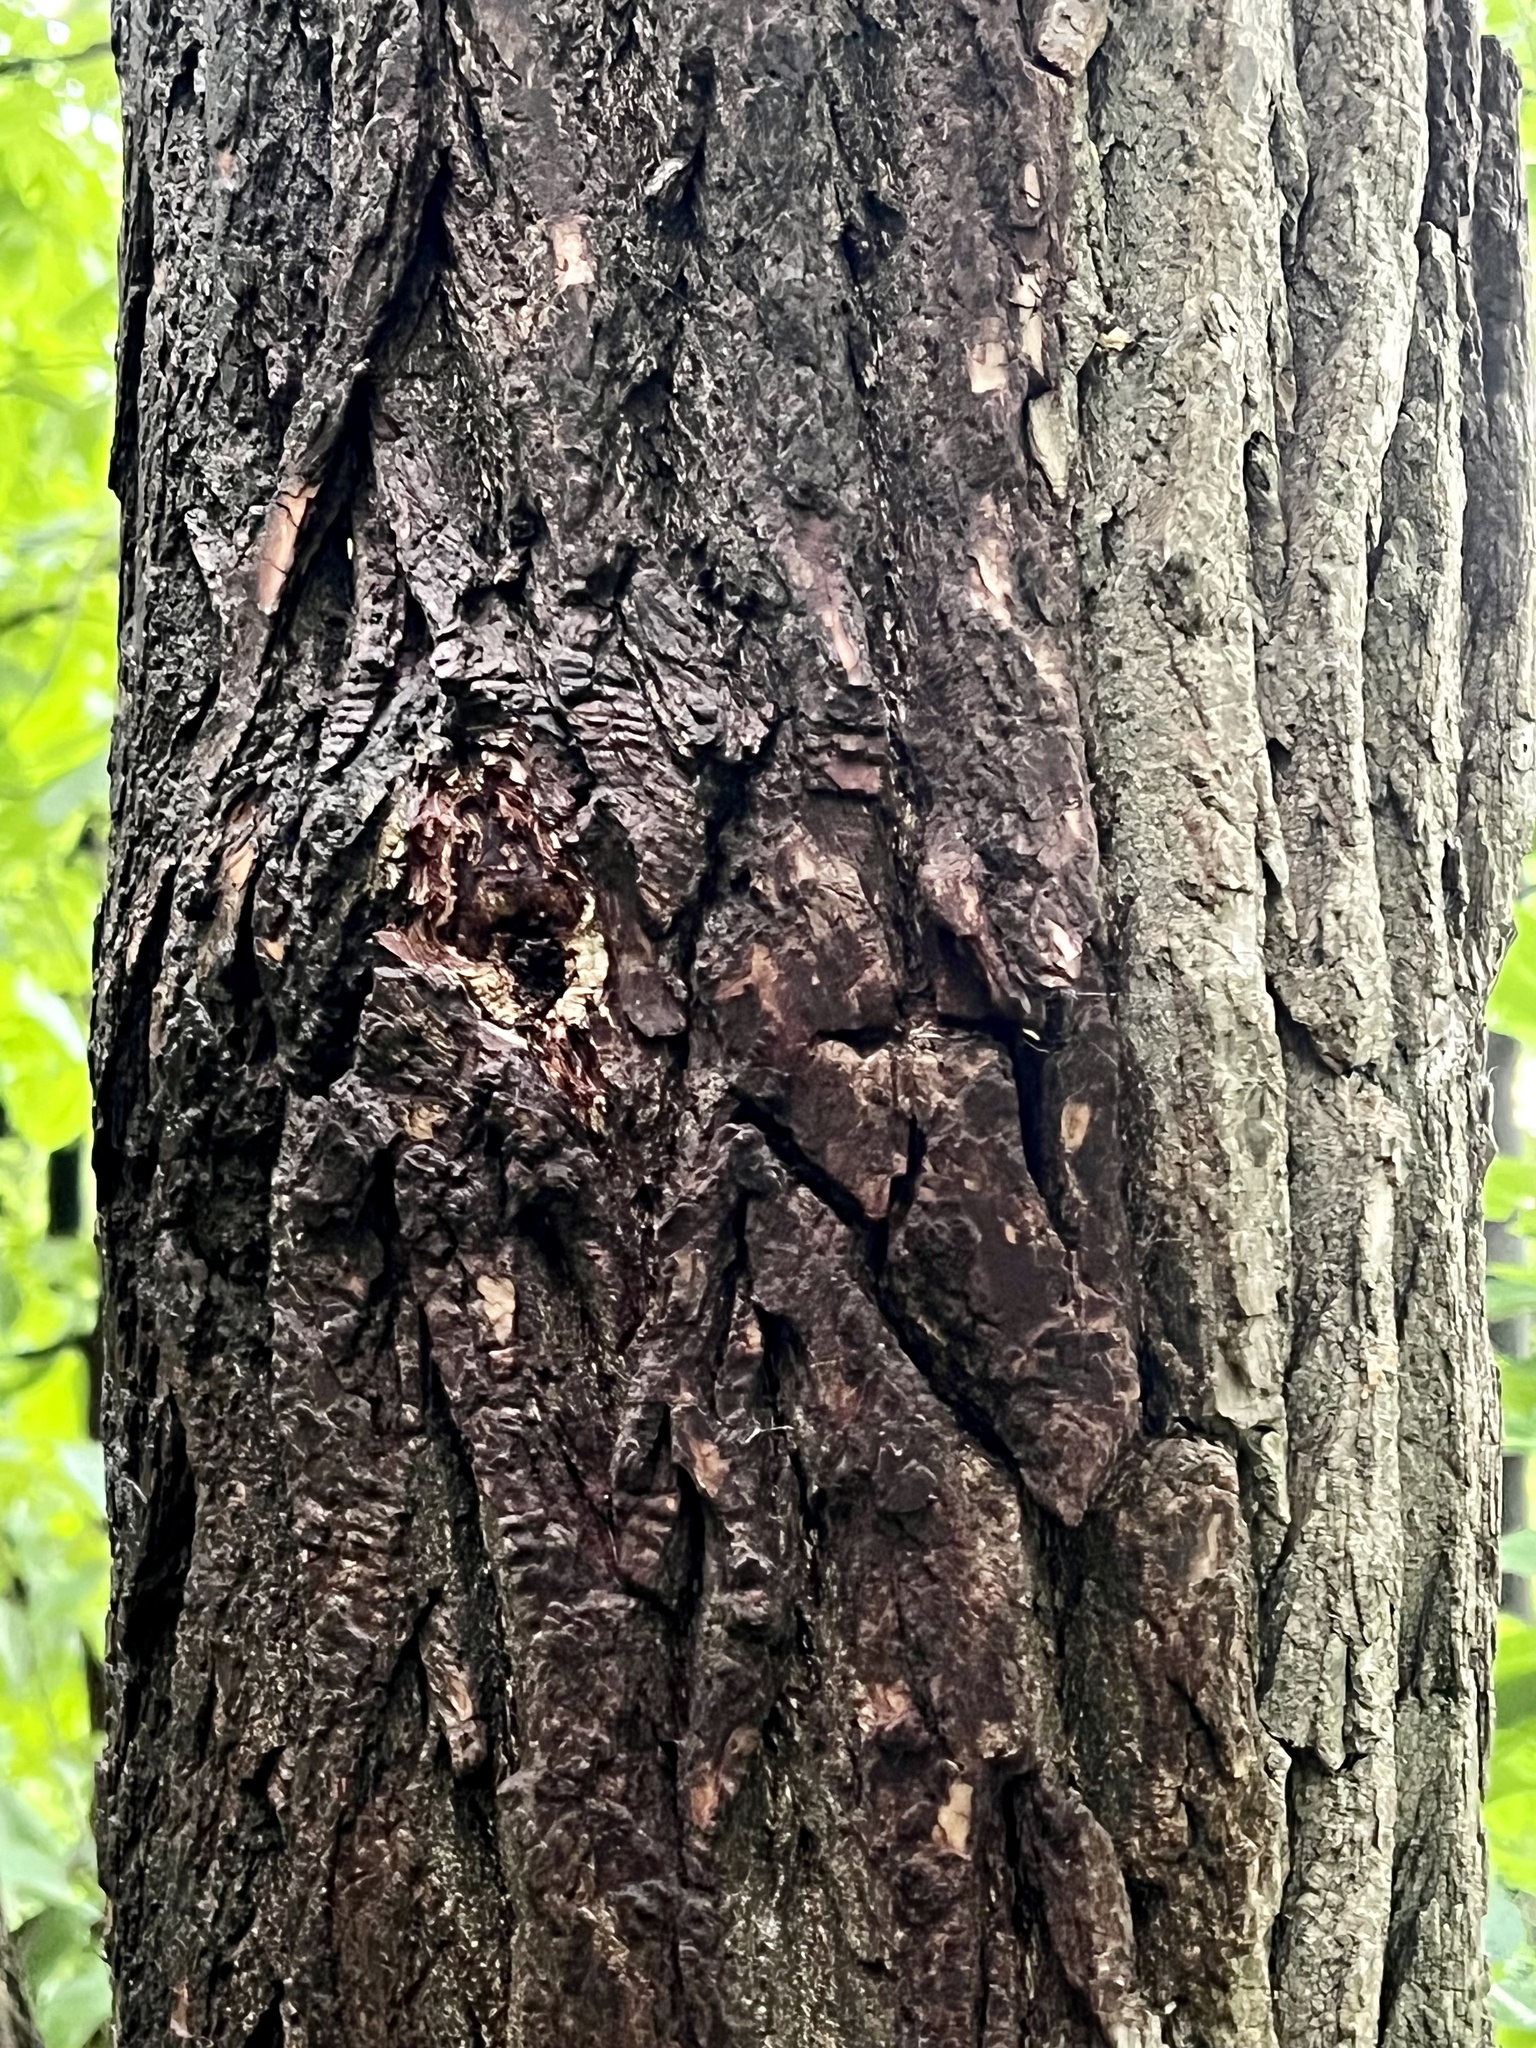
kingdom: Plantae
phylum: Tracheophyta
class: Magnoliopsida
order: Laurales
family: Lauraceae
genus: Sassafras
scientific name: Sassafras albidum
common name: Sassafras
